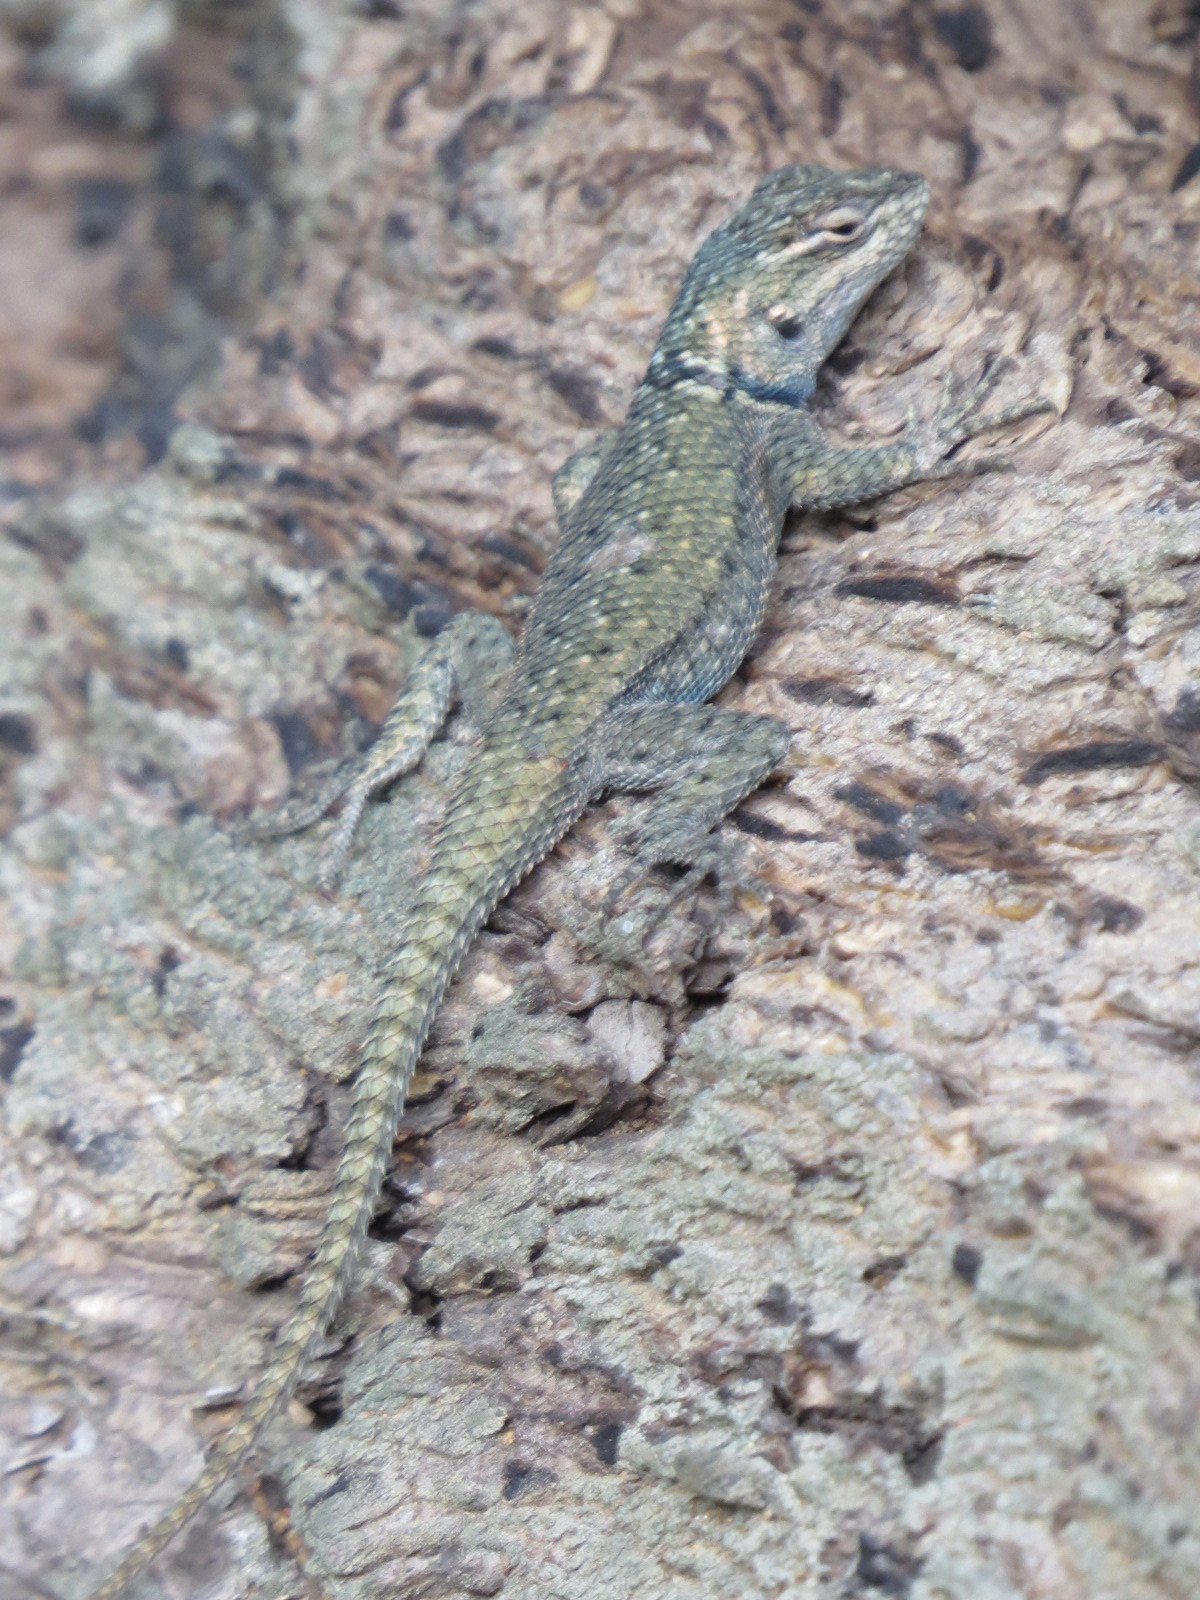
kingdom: Animalia
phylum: Chordata
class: Squamata
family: Phrynosomatidae
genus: Sceloporus
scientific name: Sceloporus jarrovii
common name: Yarrow's spiny lizard
